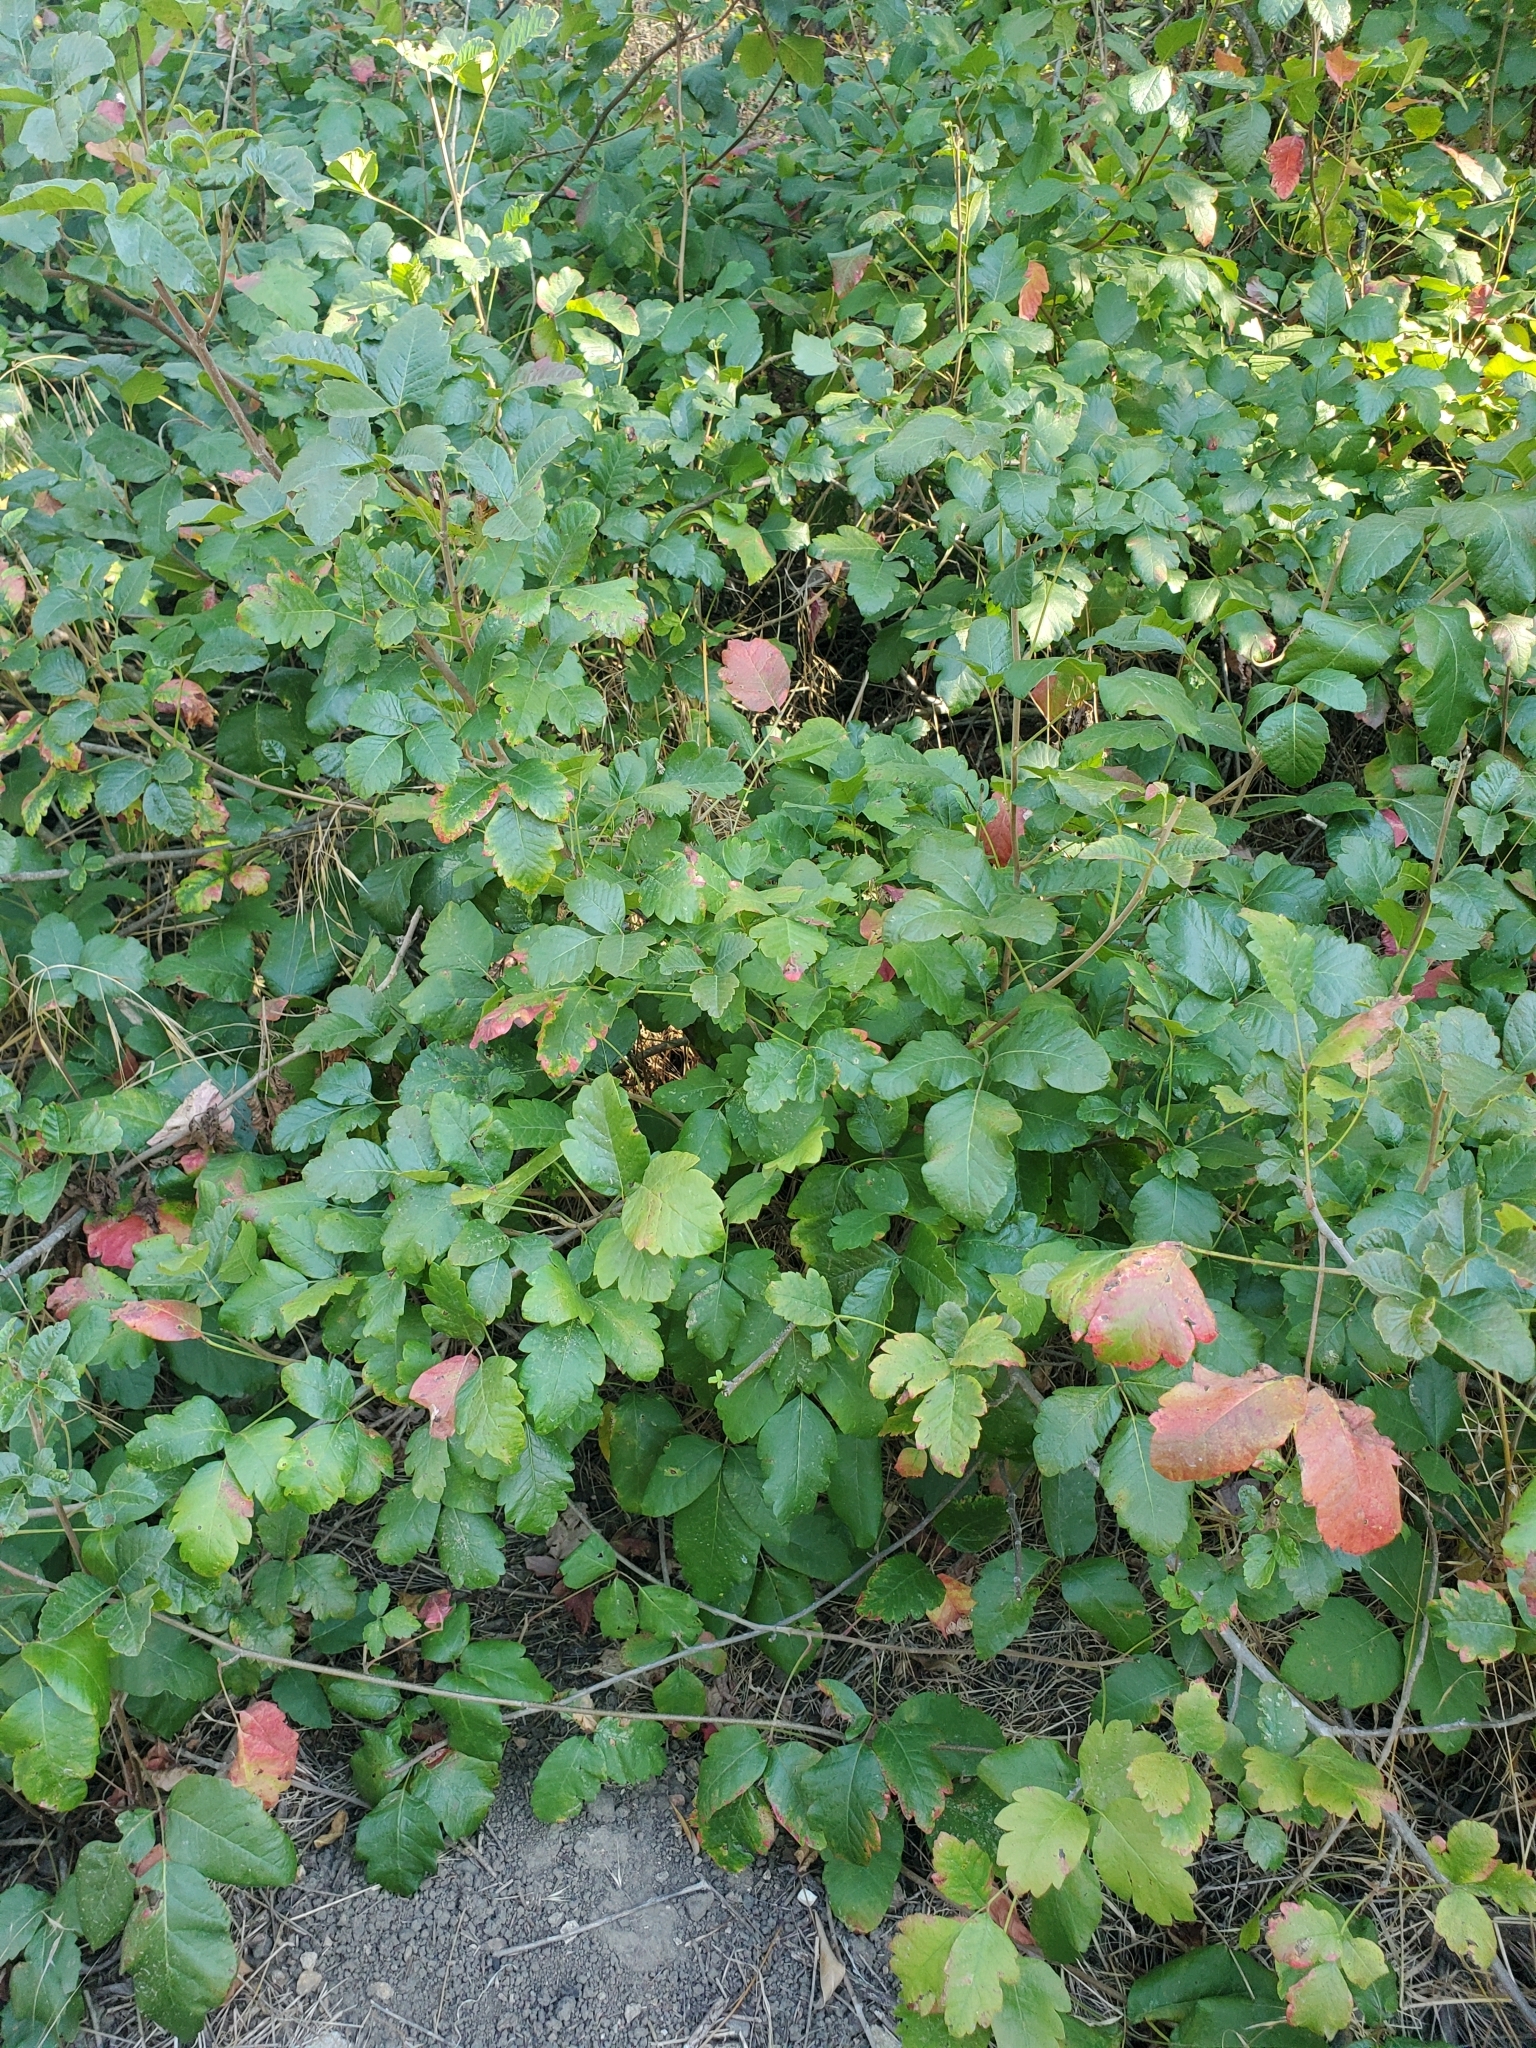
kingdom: Plantae
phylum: Tracheophyta
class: Magnoliopsida
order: Sapindales
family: Anacardiaceae
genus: Toxicodendron
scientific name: Toxicodendron diversilobum
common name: Pacific poison-oak
